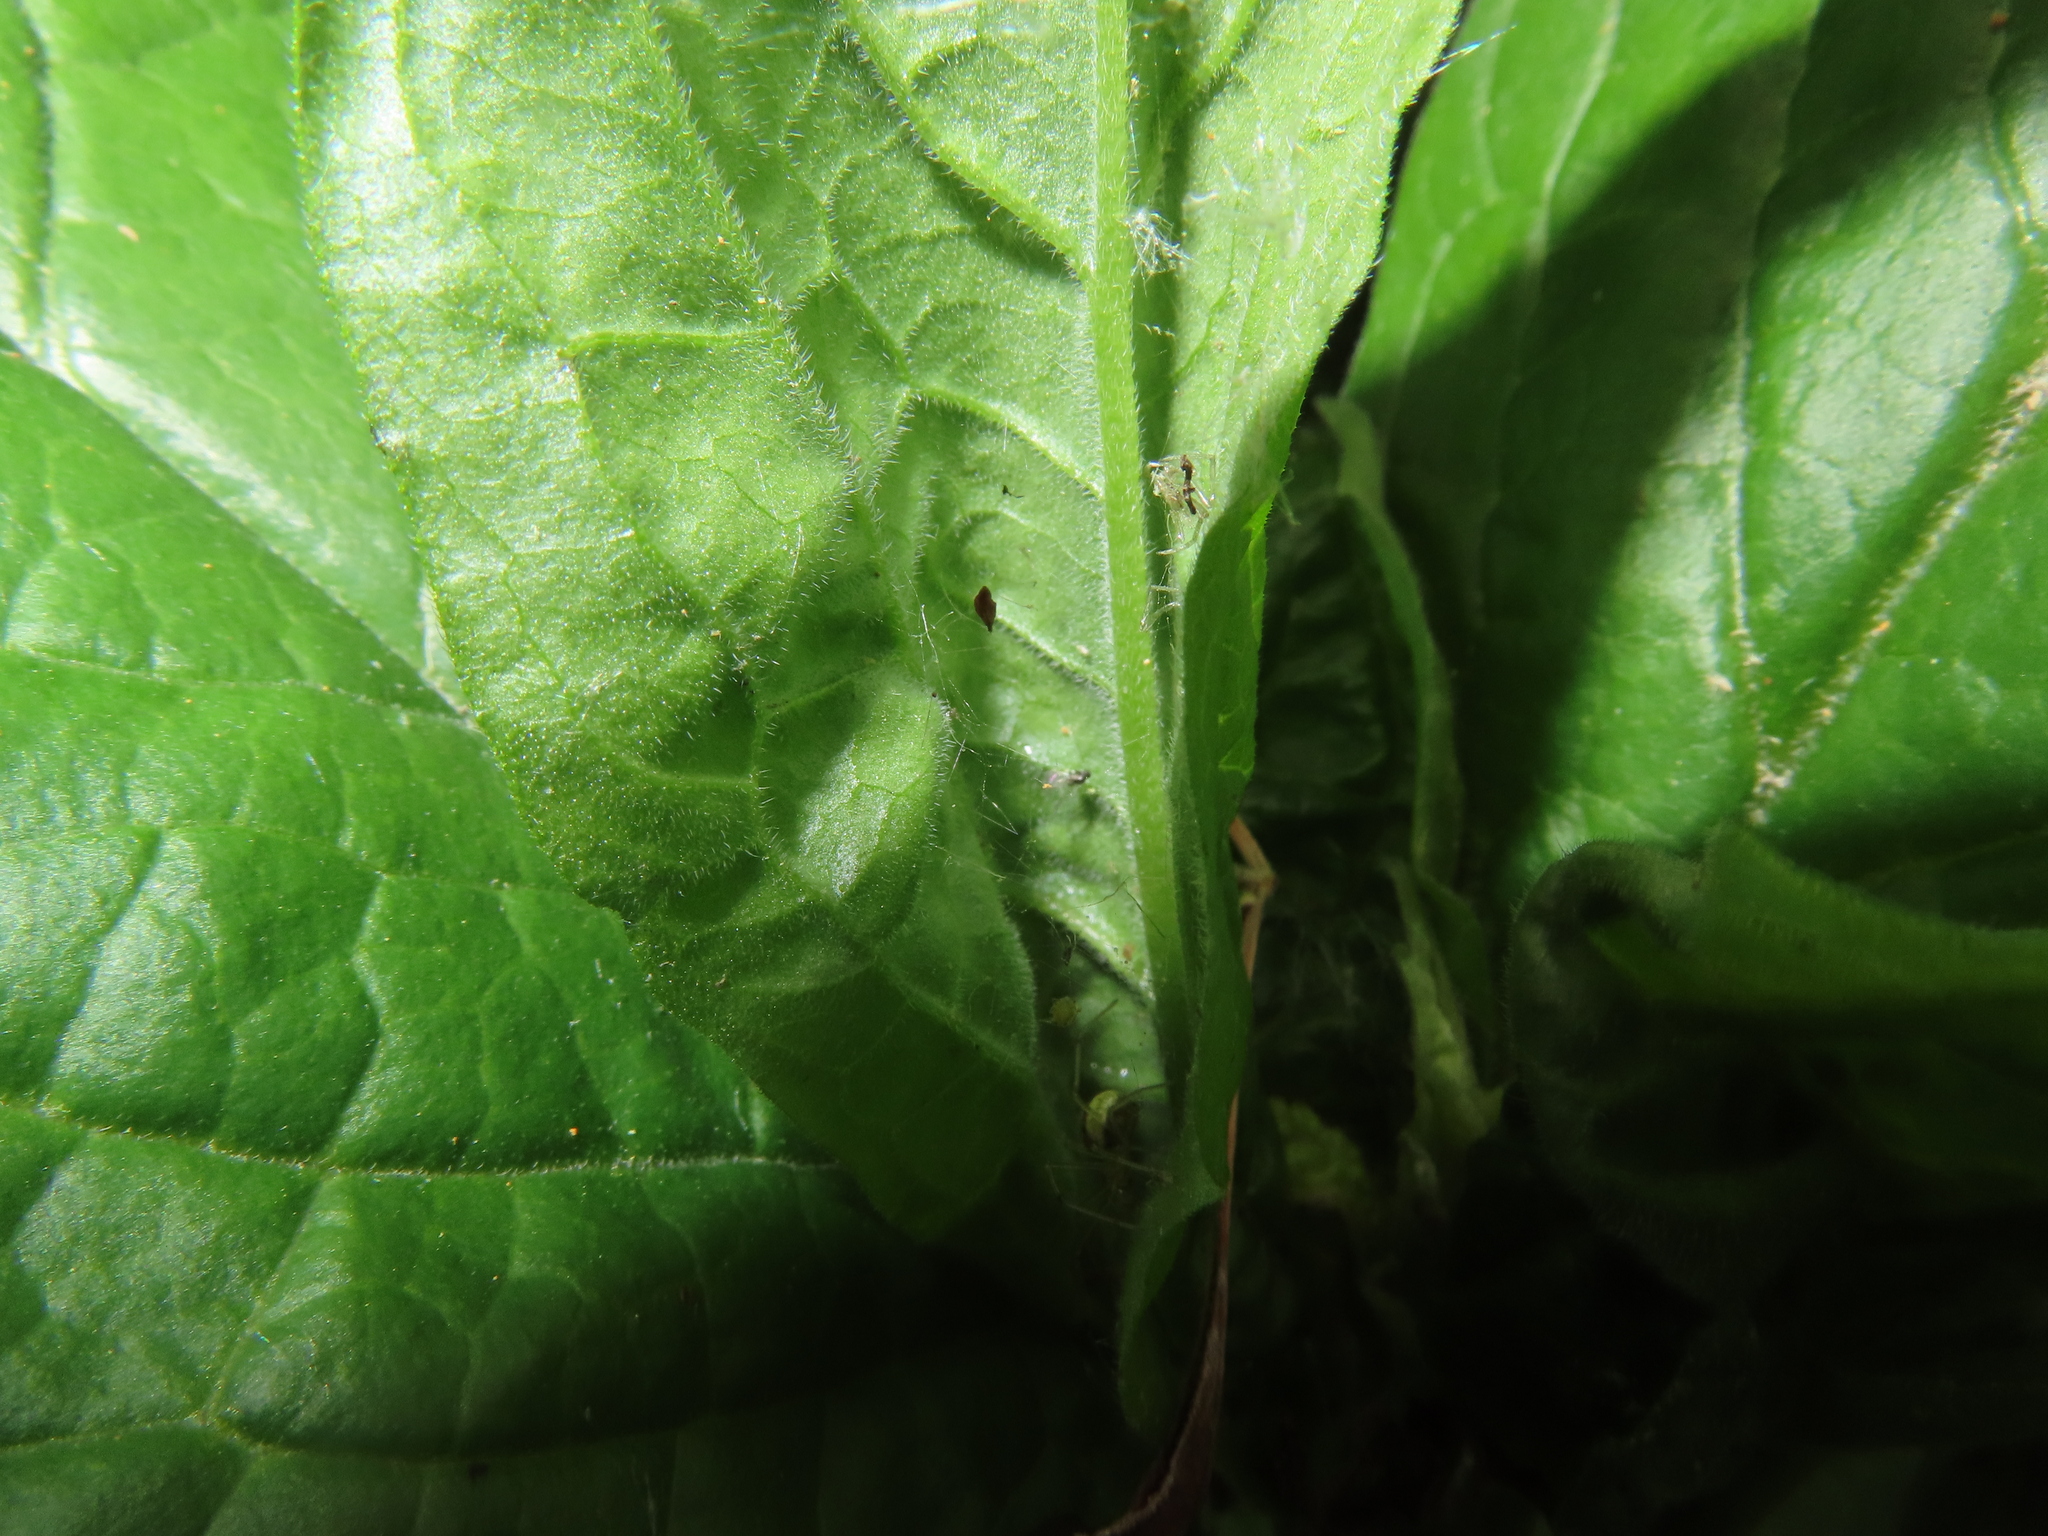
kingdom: Animalia
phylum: Arthropoda
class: Arachnida
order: Araneae
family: Theridiidae
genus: Enoplognatha
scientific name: Enoplognatha ovata
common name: Common candy-striped spider
